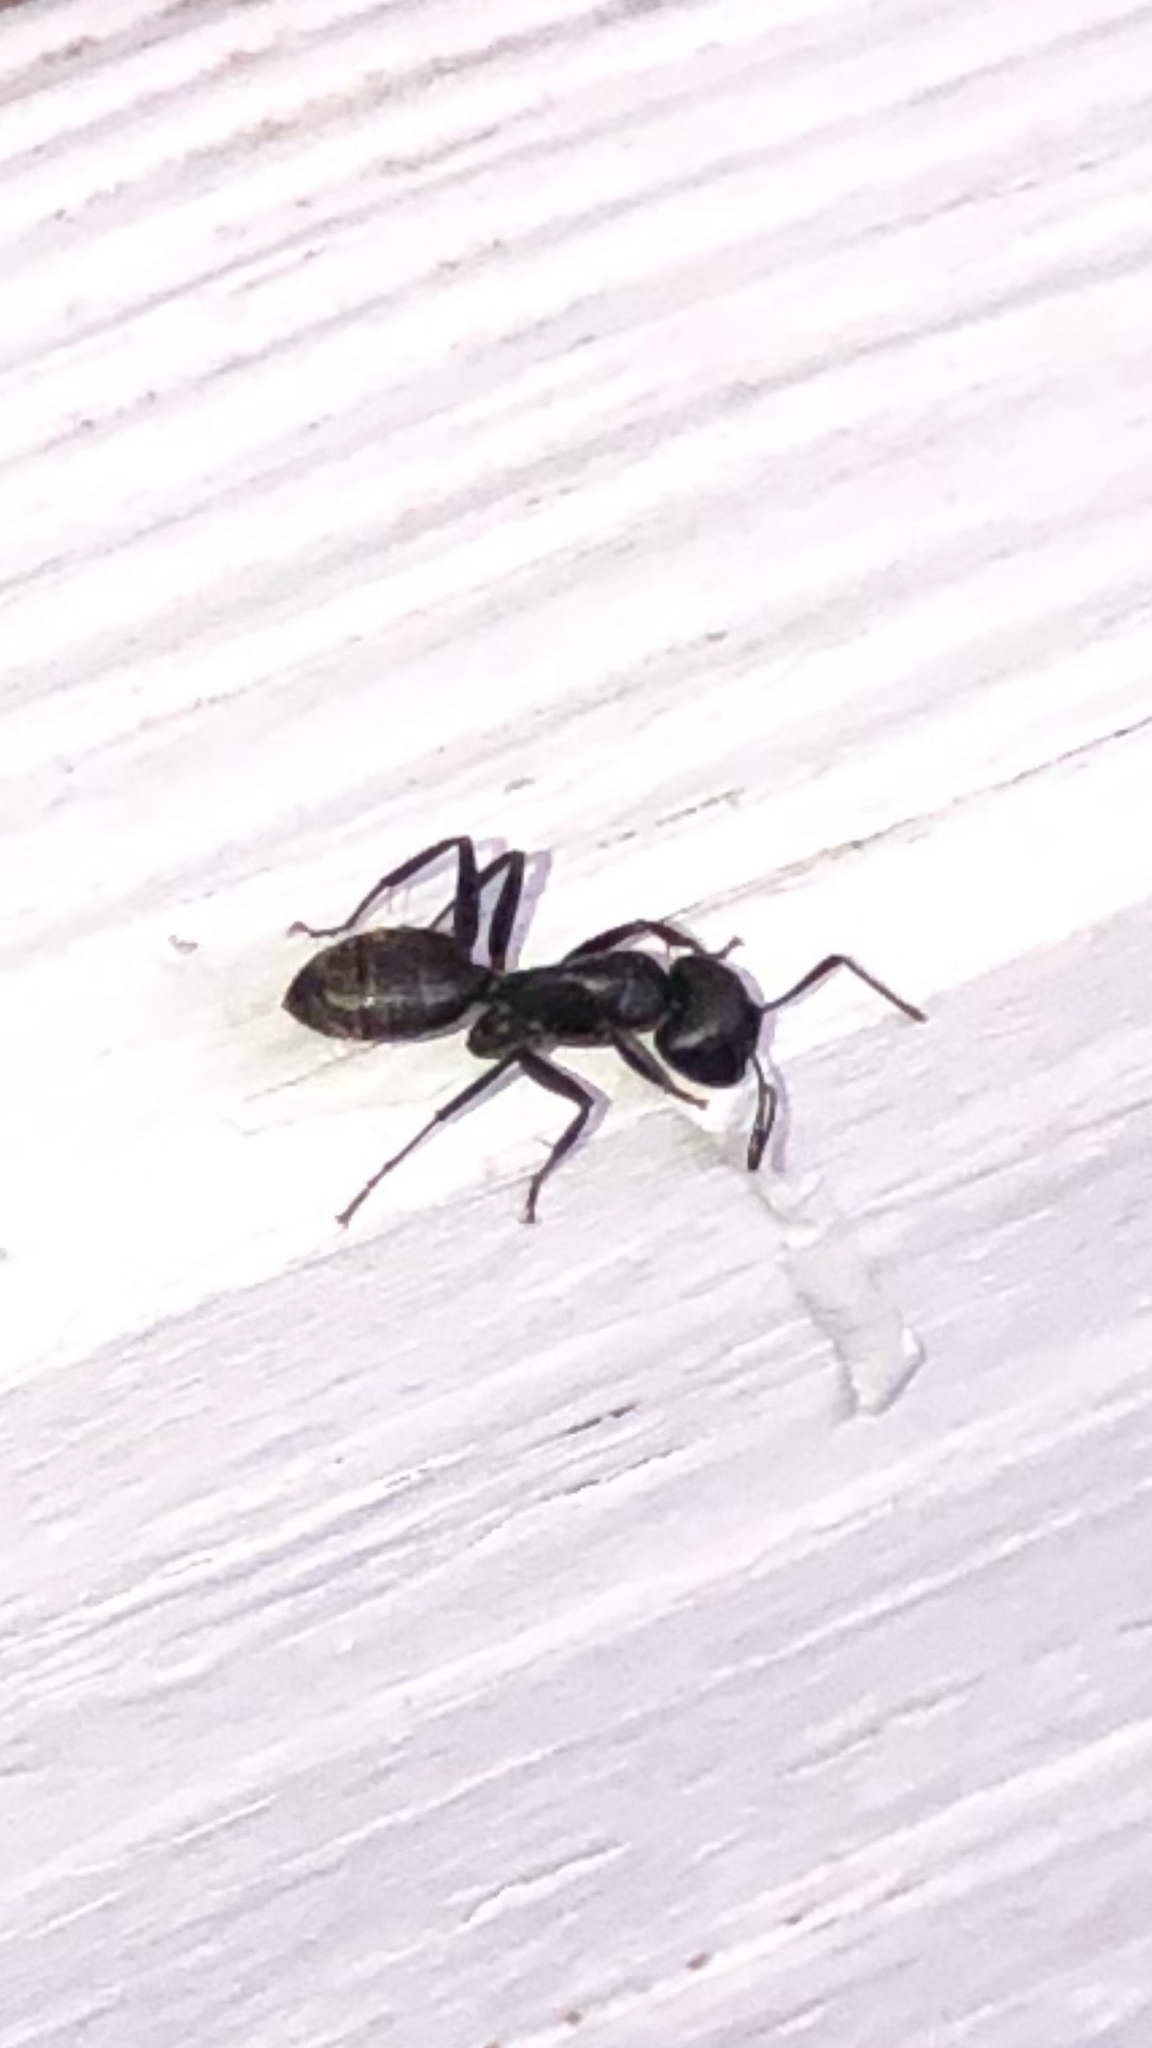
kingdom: Animalia
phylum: Arthropoda
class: Insecta
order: Hymenoptera
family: Formicidae
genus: Camponotus
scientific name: Camponotus pennsylvanicus
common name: Black carpenter ant
